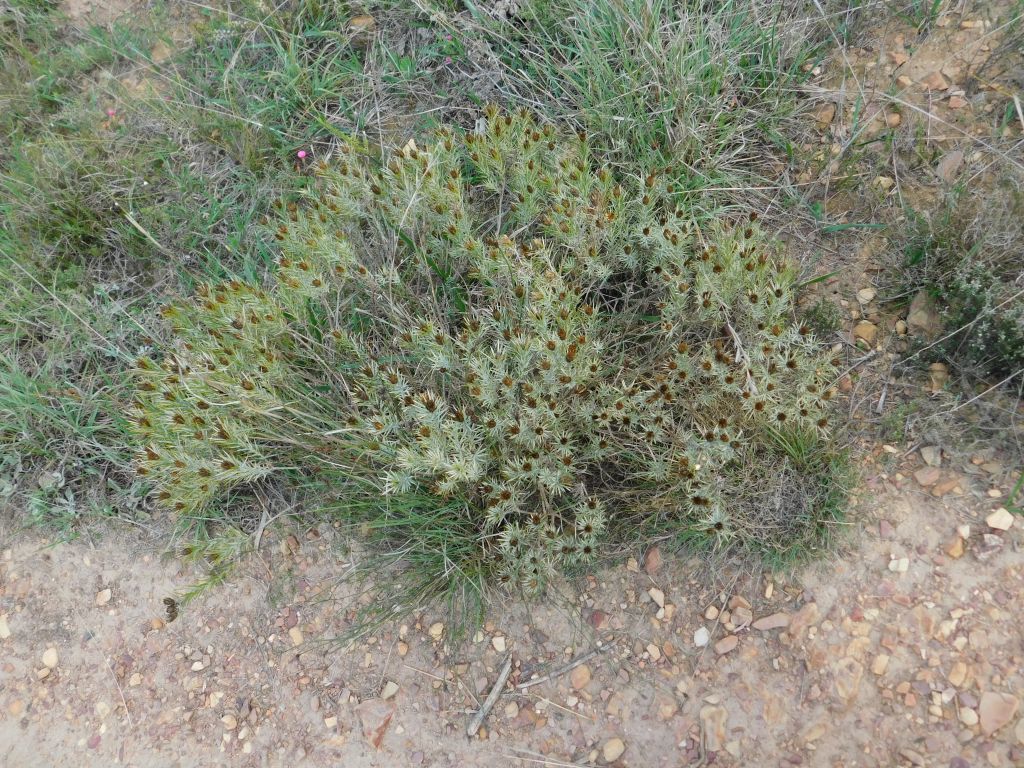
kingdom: Plantae
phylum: Tracheophyta
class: Magnoliopsida
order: Asterales
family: Asteraceae
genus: Oedera
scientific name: Oedera pungens
